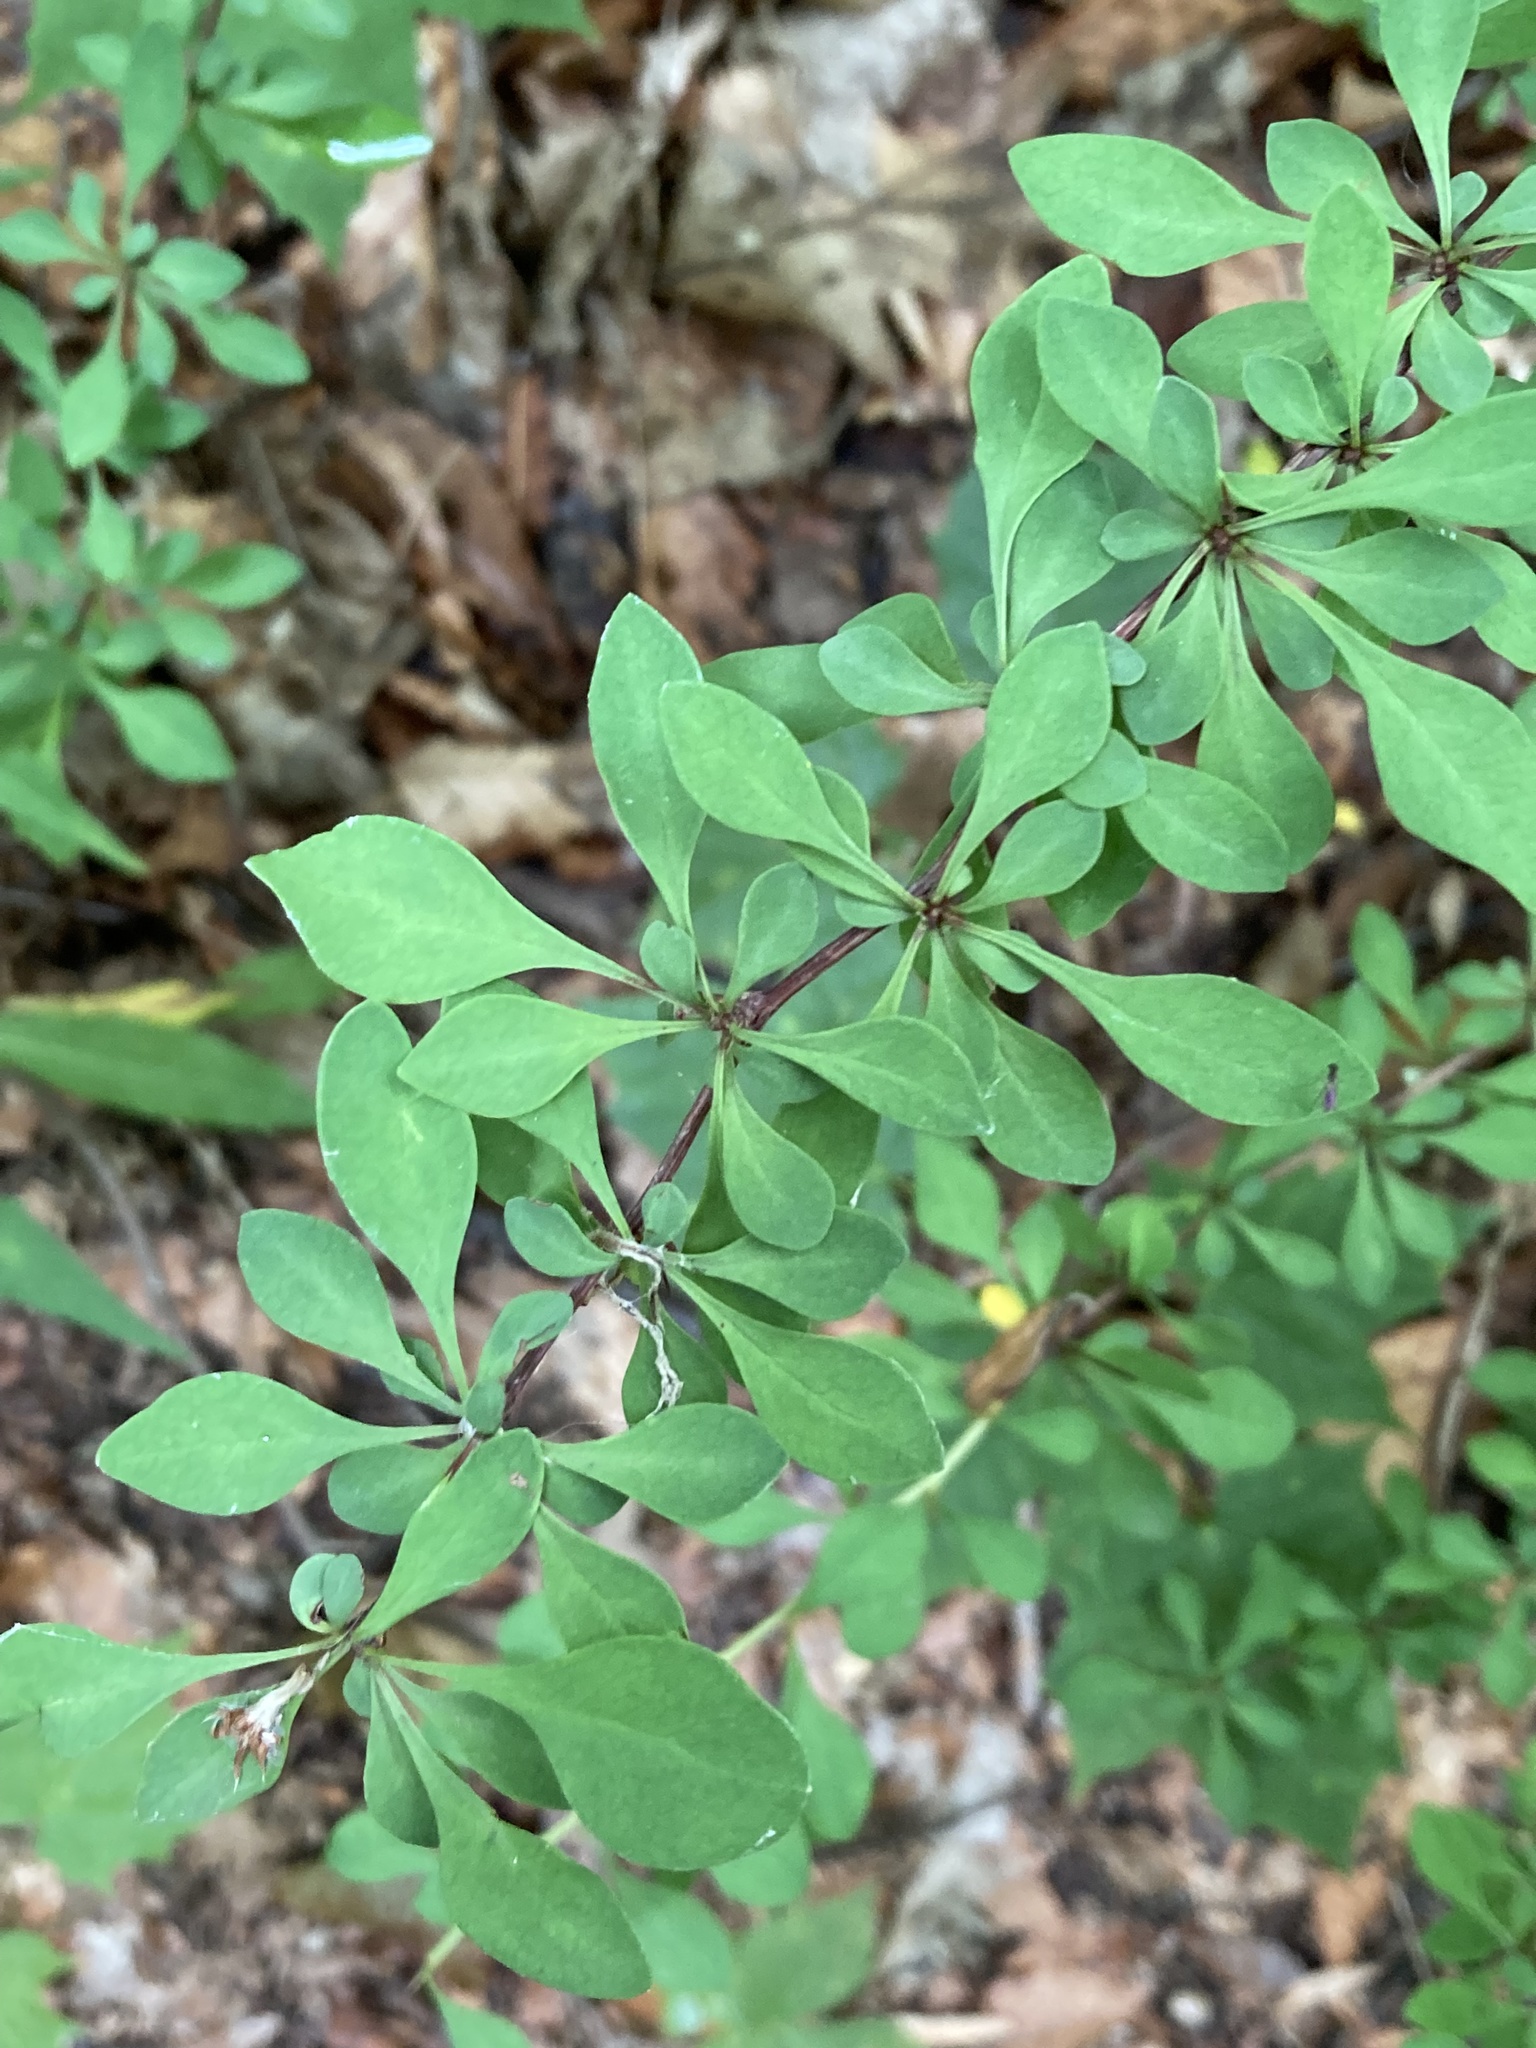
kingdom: Plantae
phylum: Tracheophyta
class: Magnoliopsida
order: Ranunculales
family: Berberidaceae
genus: Berberis
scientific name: Berberis thunbergii
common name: Japanese barberry
